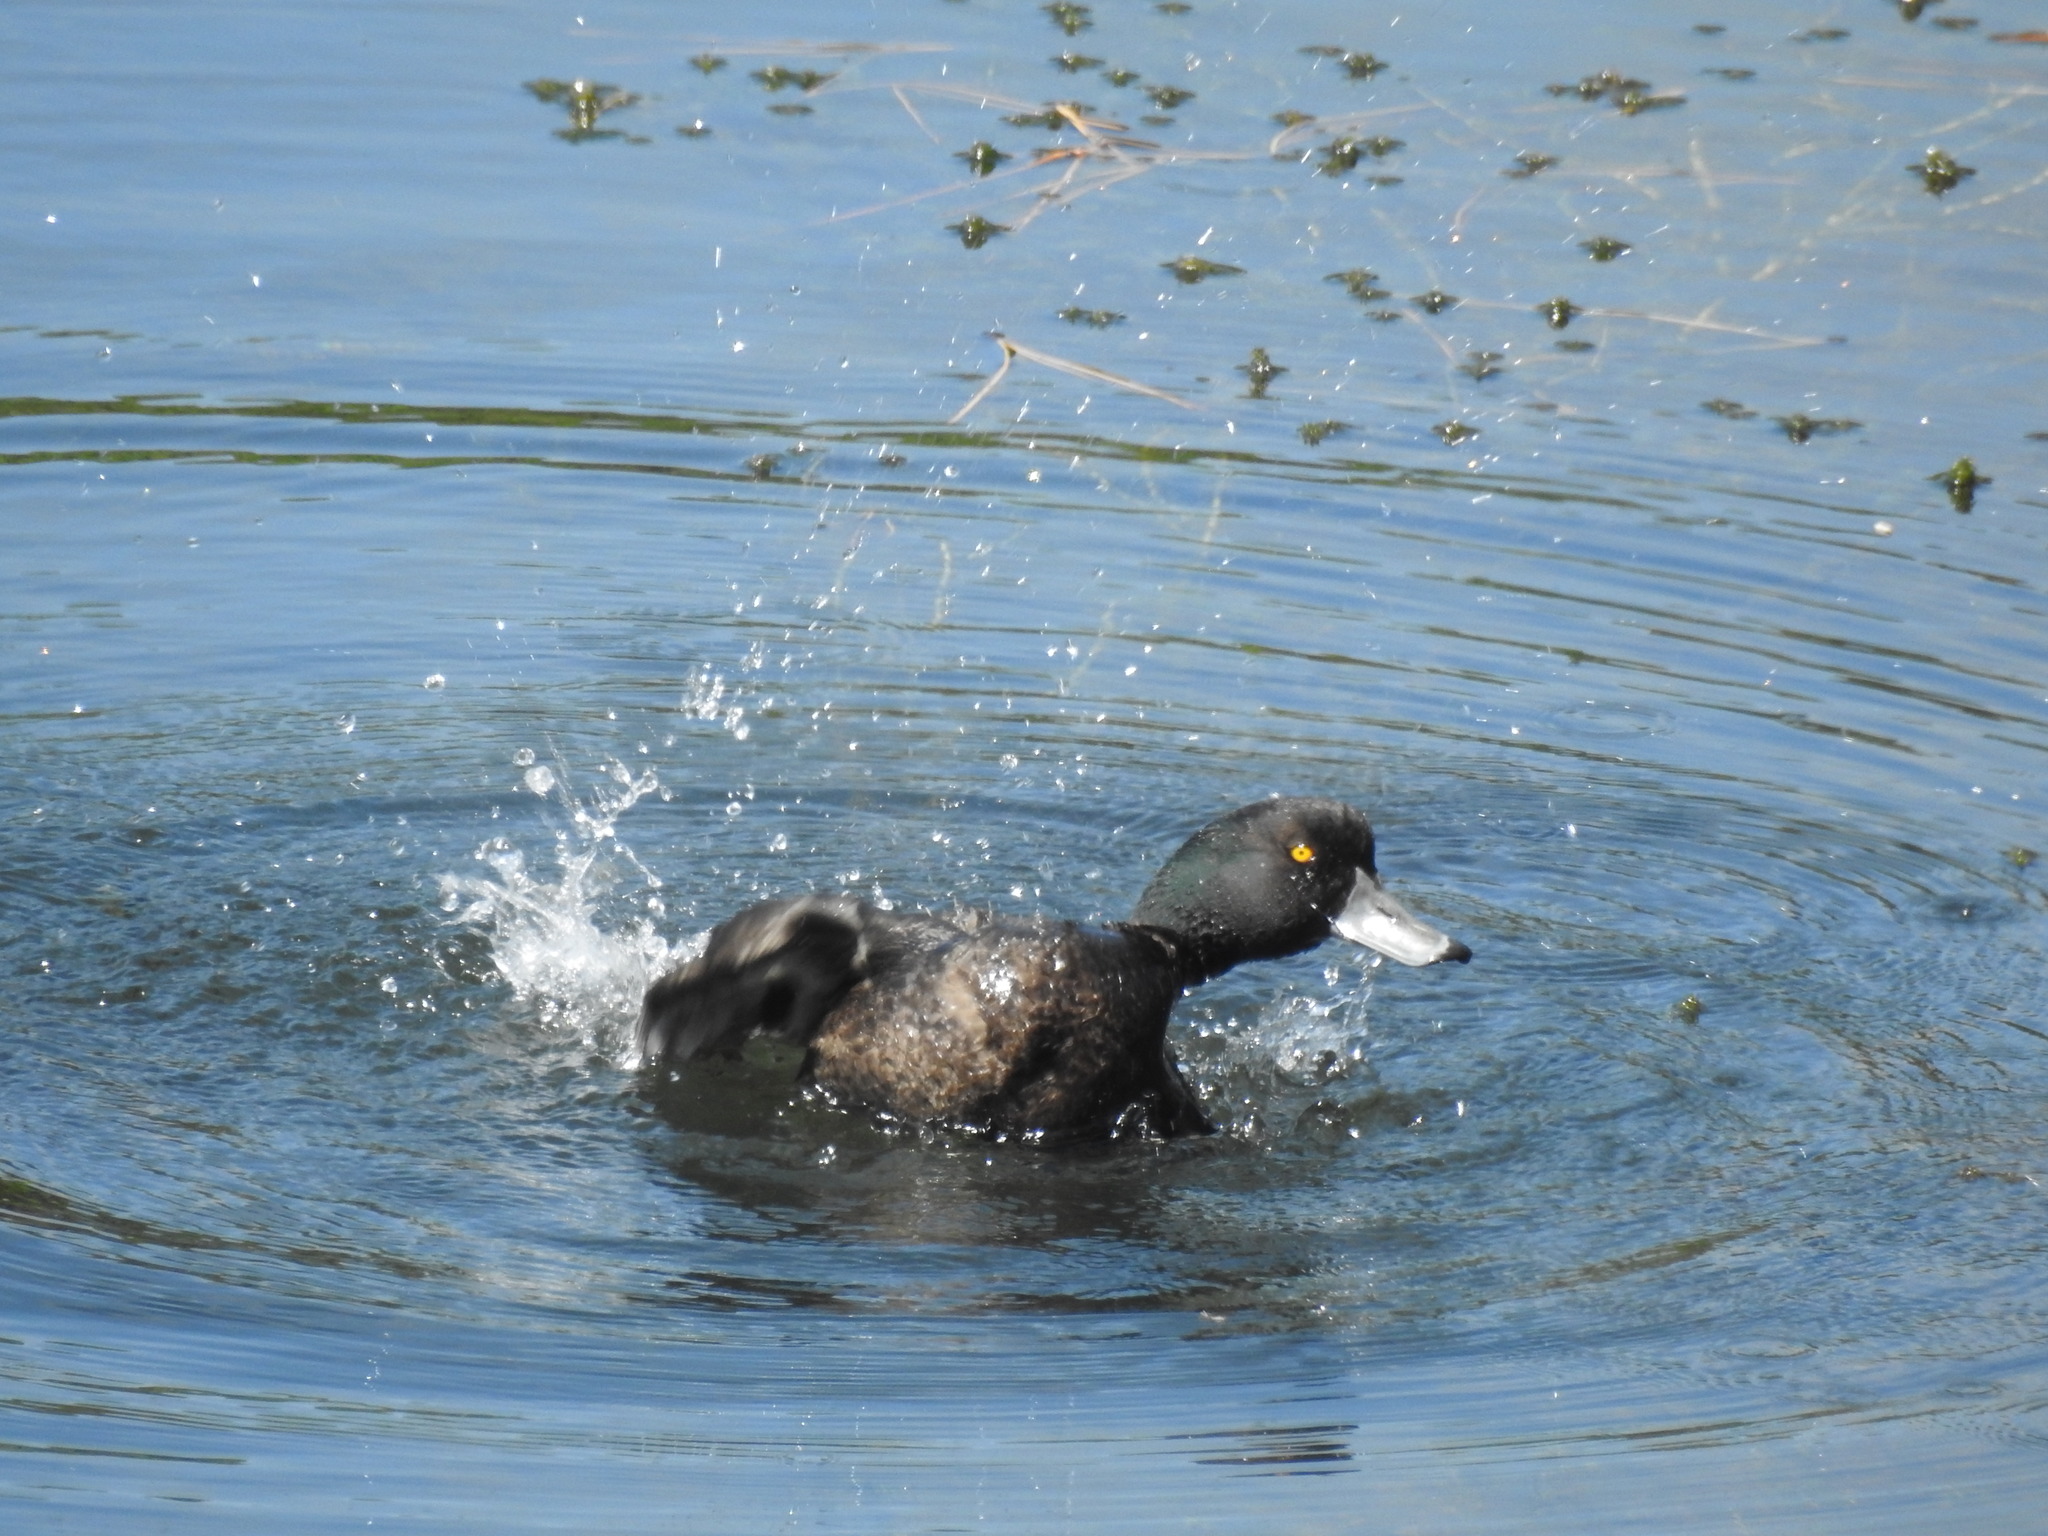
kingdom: Animalia
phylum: Chordata
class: Aves
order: Anseriformes
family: Anatidae
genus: Aythya
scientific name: Aythya novaeseelandiae
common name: New zealand scaup
